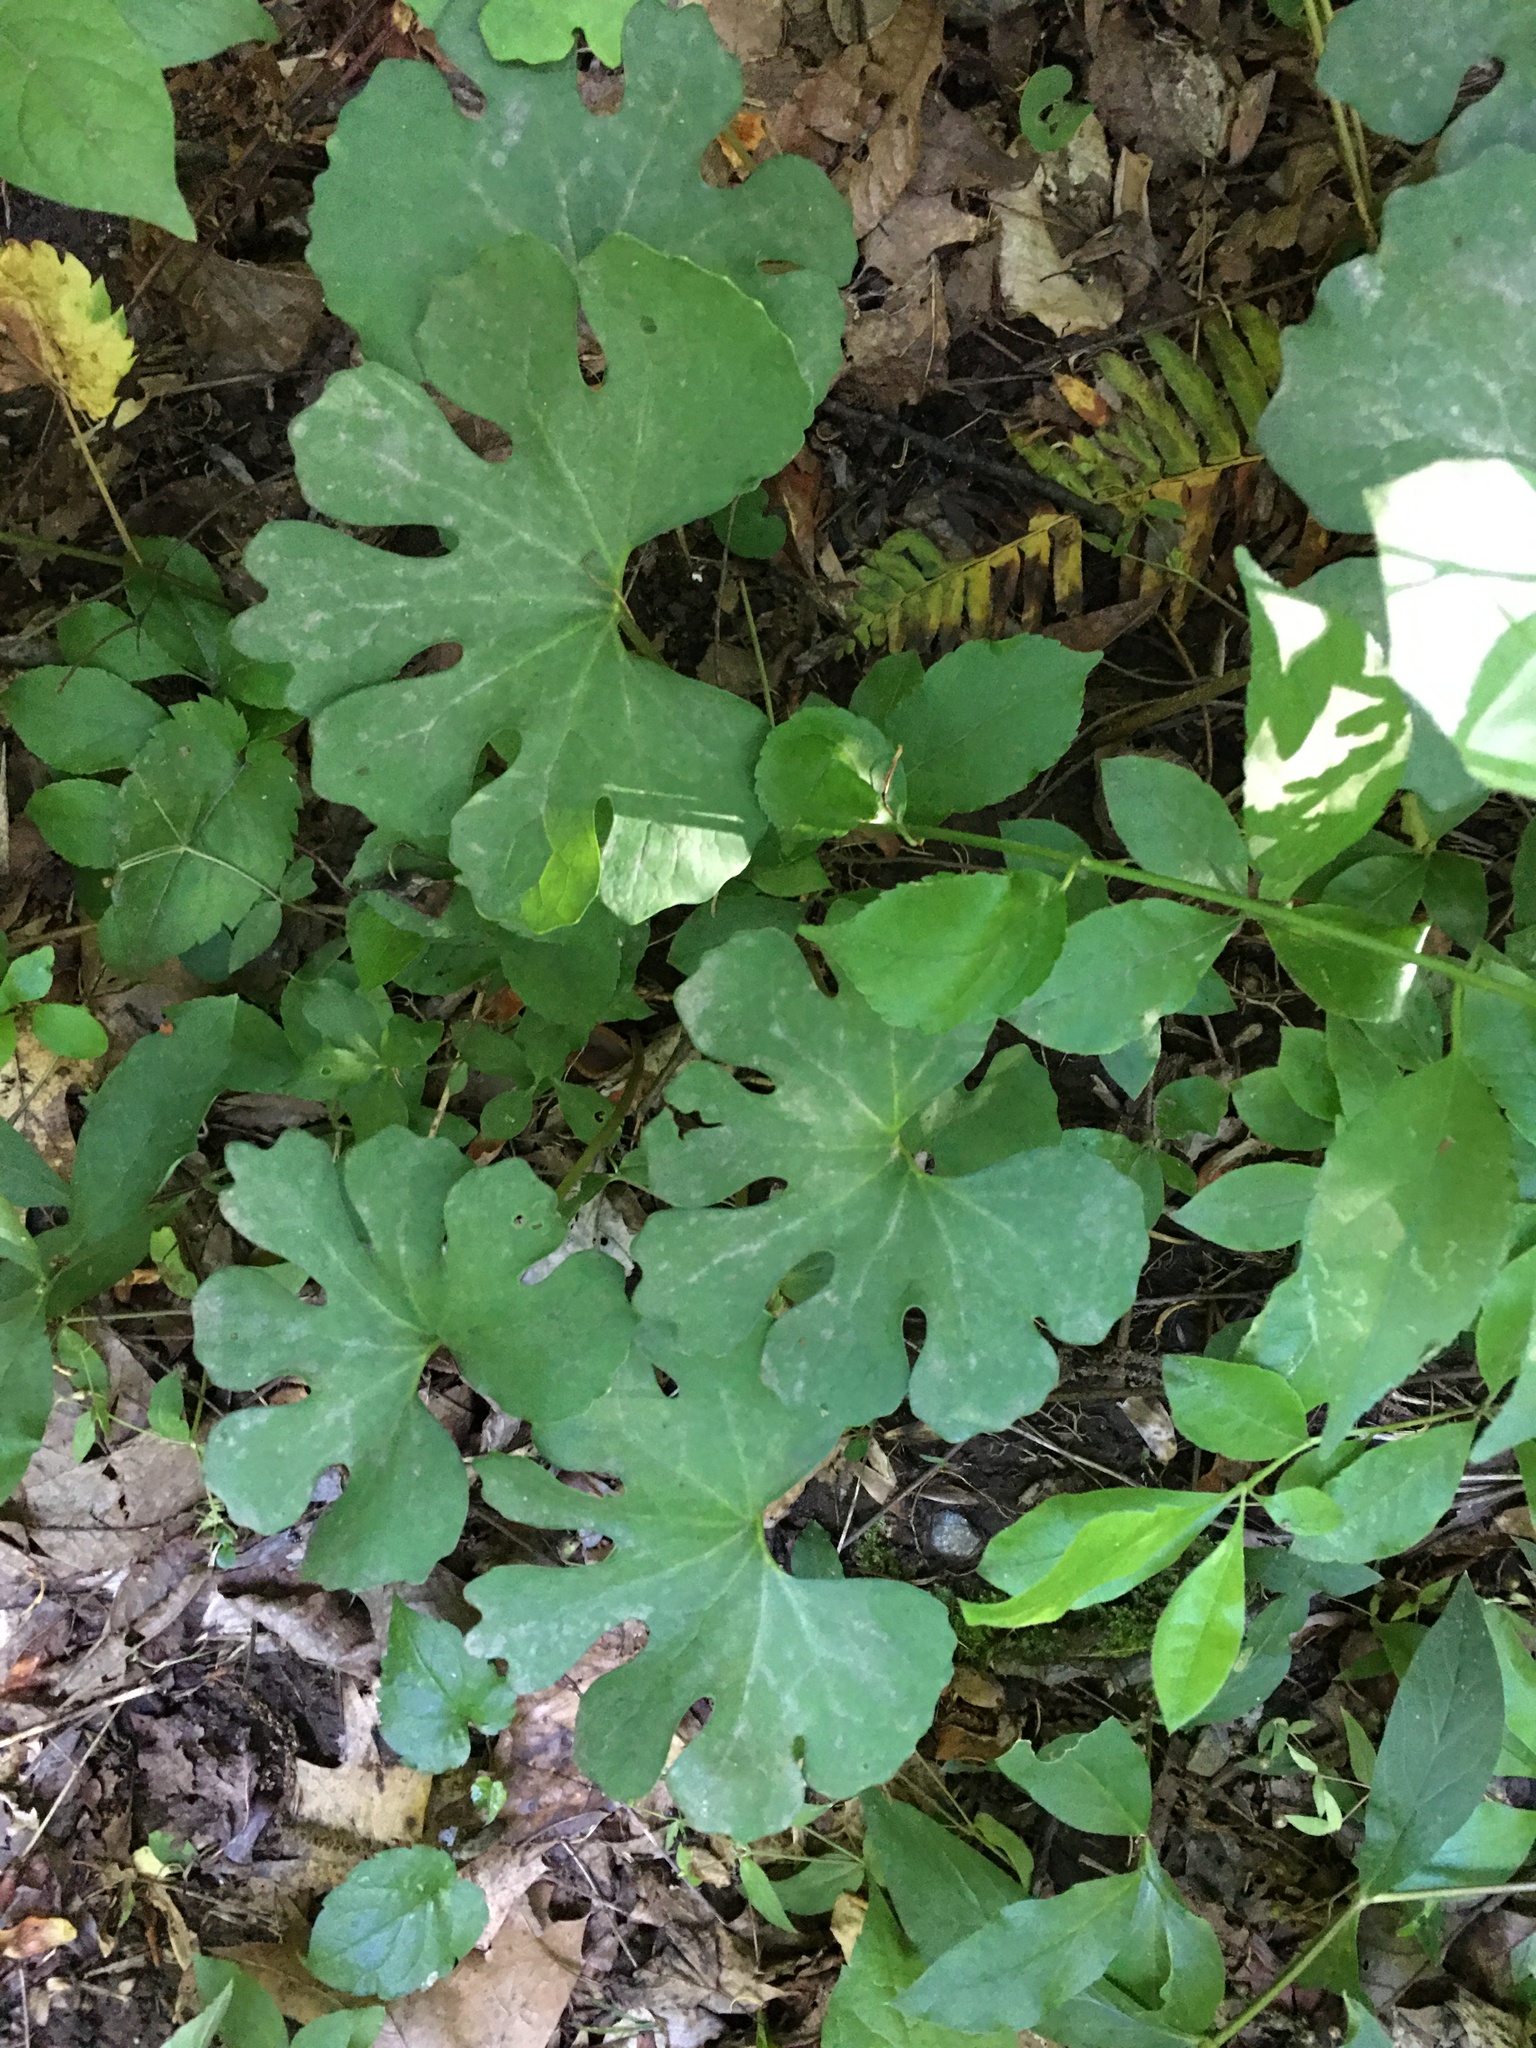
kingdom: Plantae
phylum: Tracheophyta
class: Magnoliopsida
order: Ranunculales
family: Papaveraceae
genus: Sanguinaria
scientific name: Sanguinaria canadensis
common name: Bloodroot
